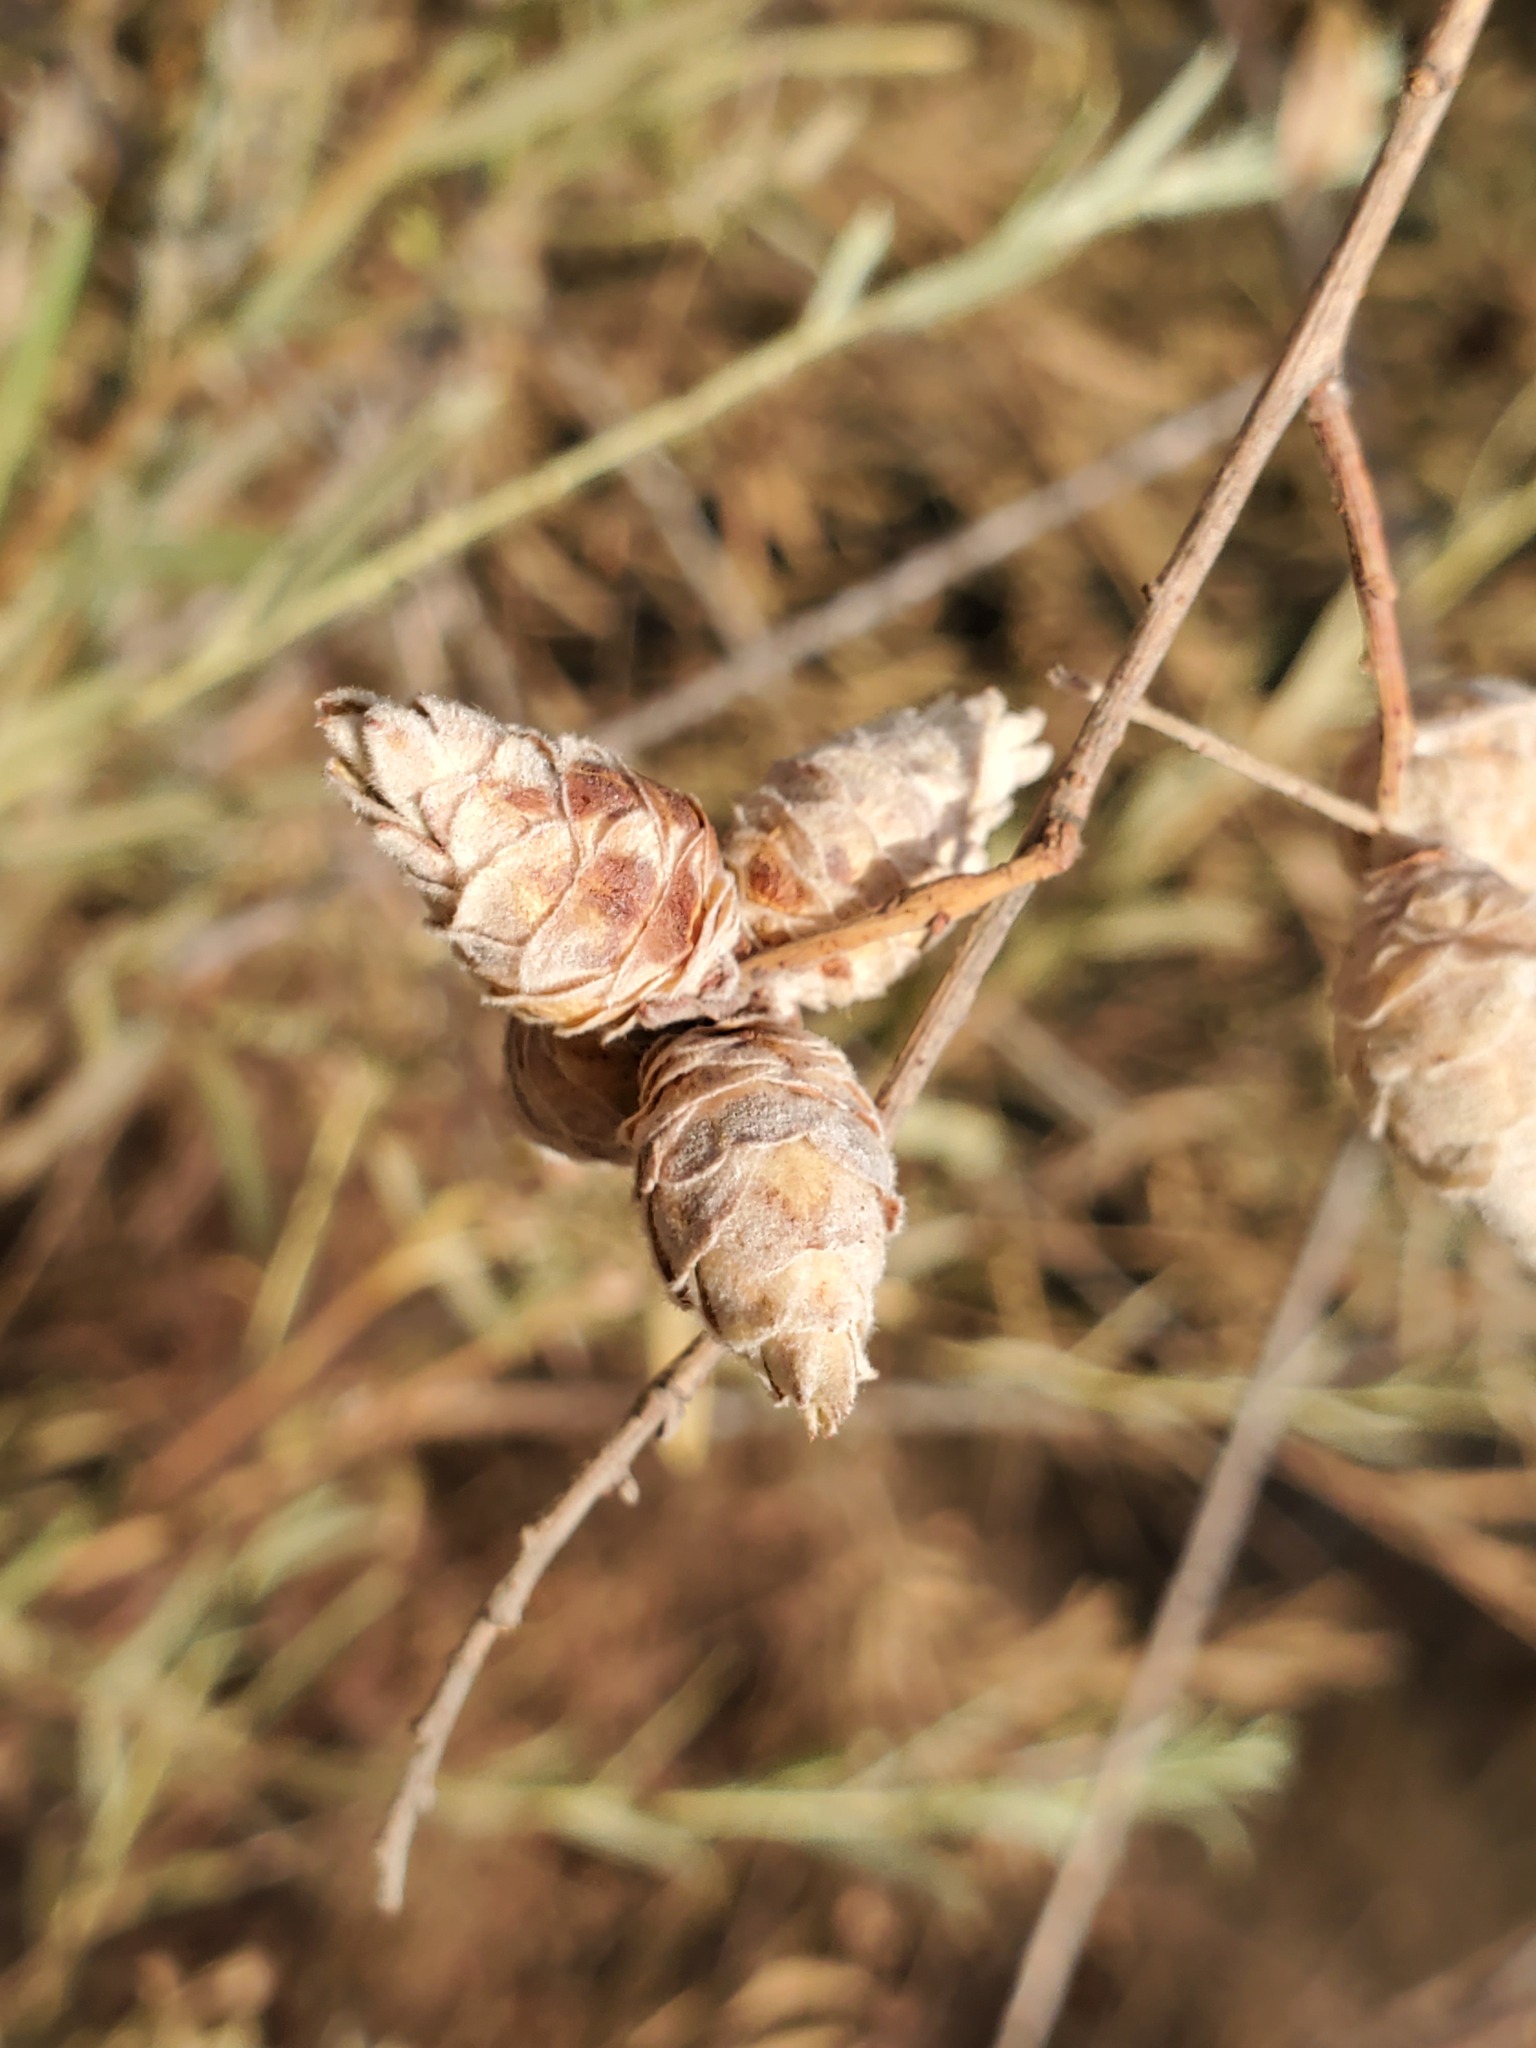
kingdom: Animalia
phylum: Arthropoda
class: Insecta
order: Diptera
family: Cecidomyiidae
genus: Rabdophaga
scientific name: Rabdophaga strobiloides
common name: Willow pinecone gall midge
